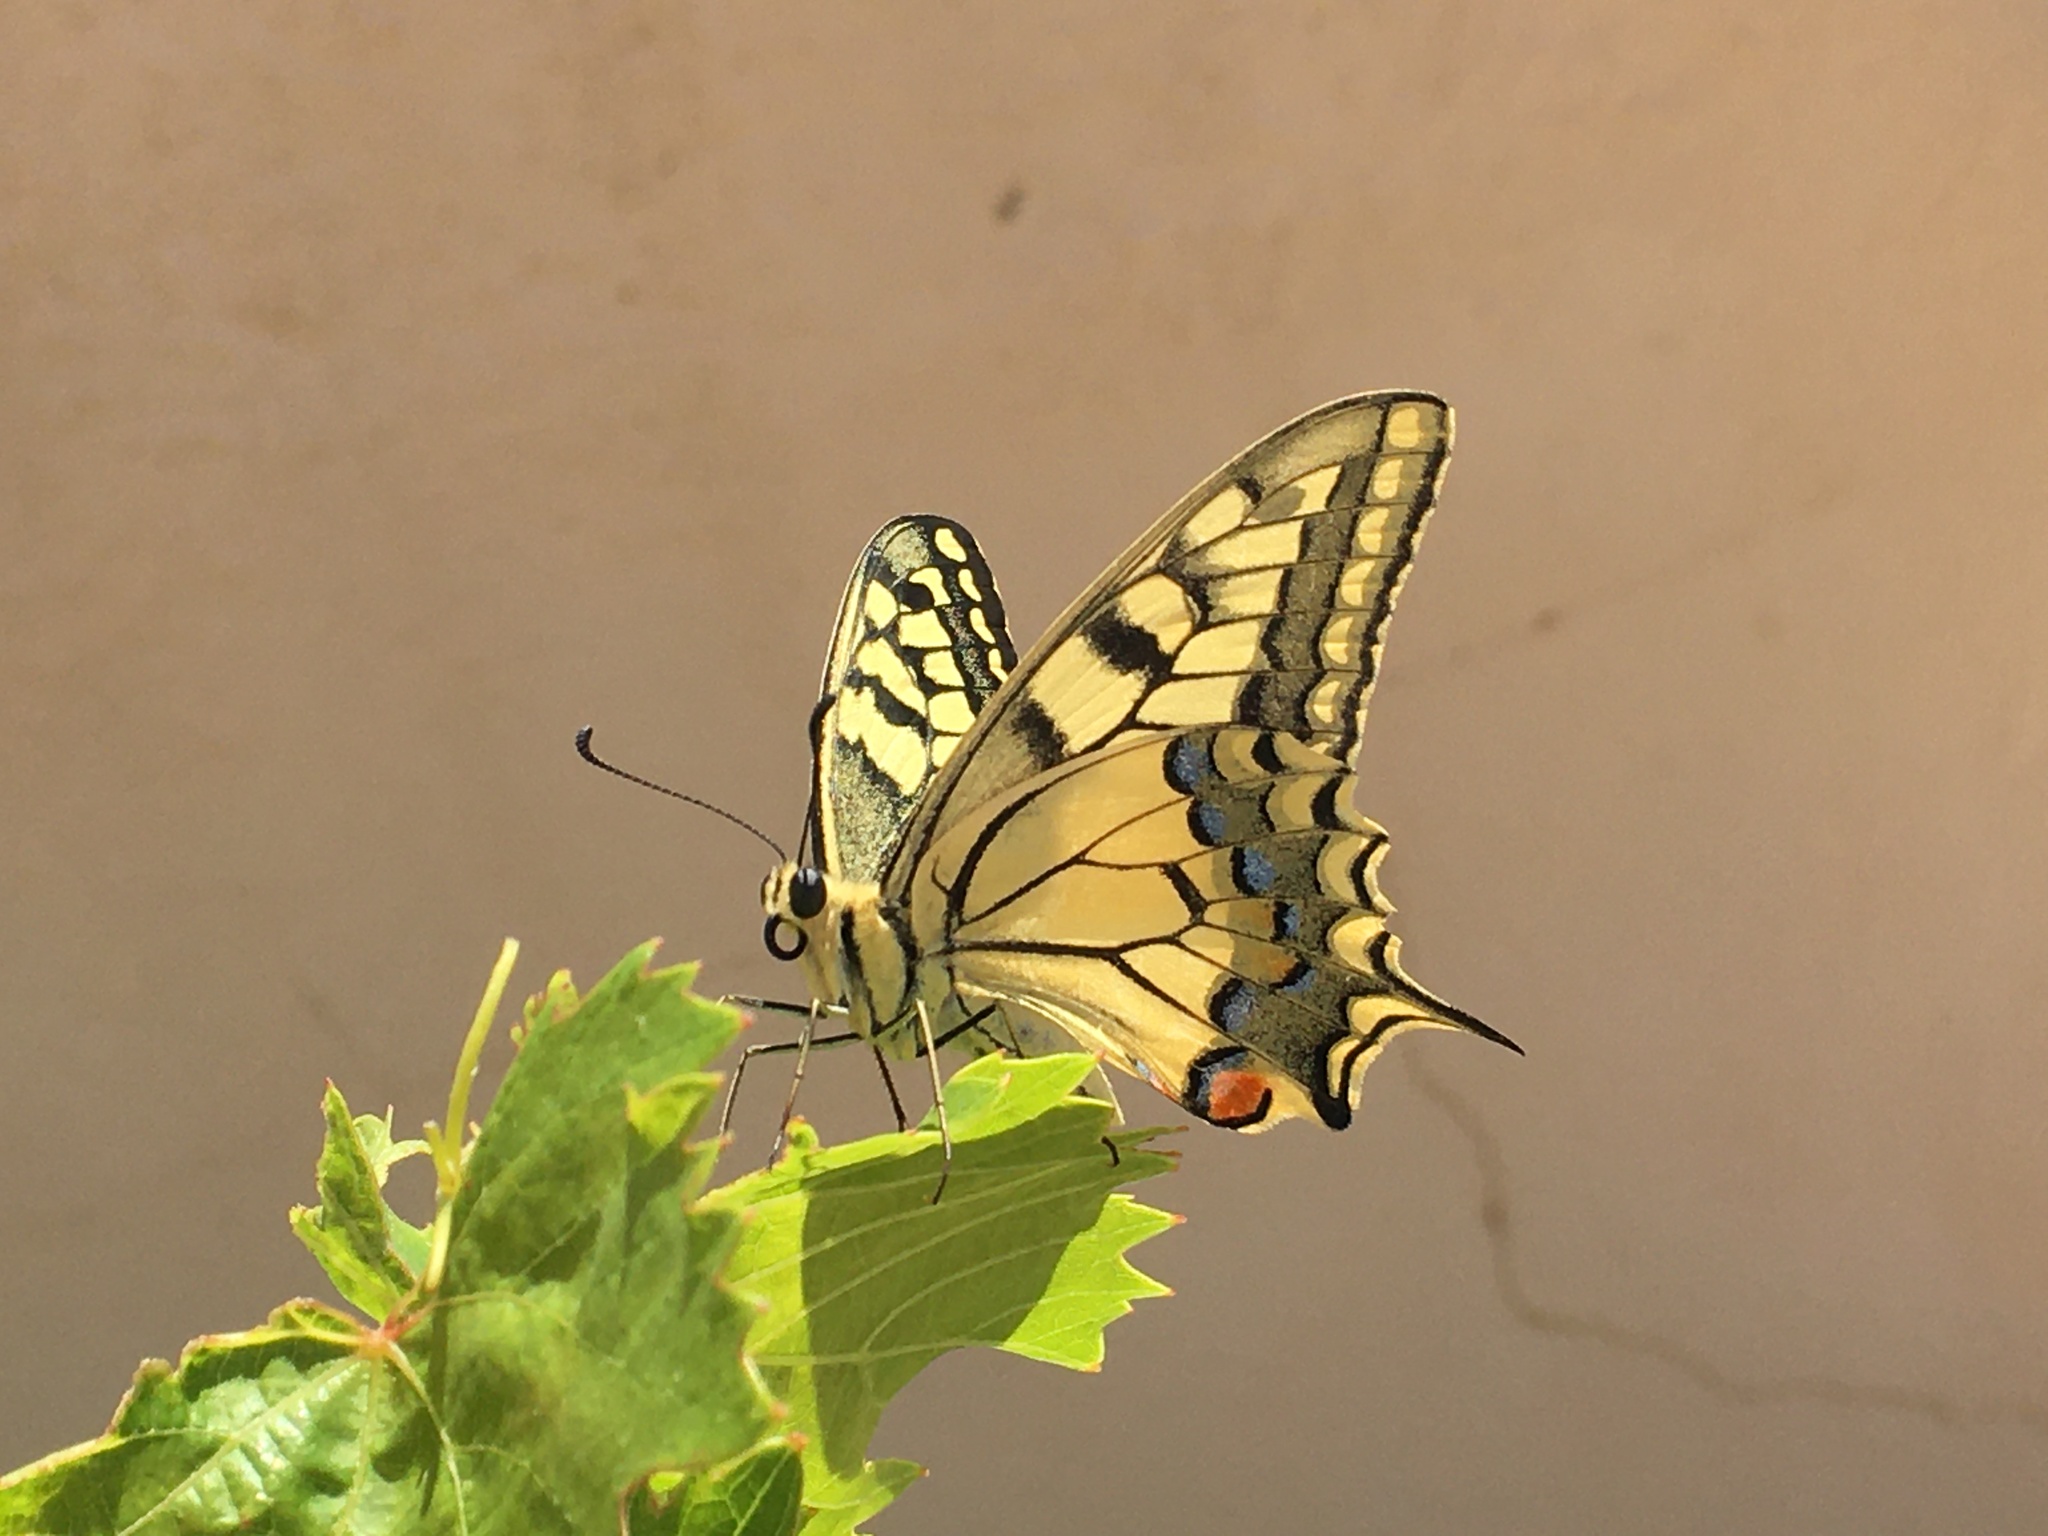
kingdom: Animalia
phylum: Arthropoda
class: Insecta
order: Lepidoptera
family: Papilionidae
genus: Papilio
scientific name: Papilio machaon
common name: Swallowtail
